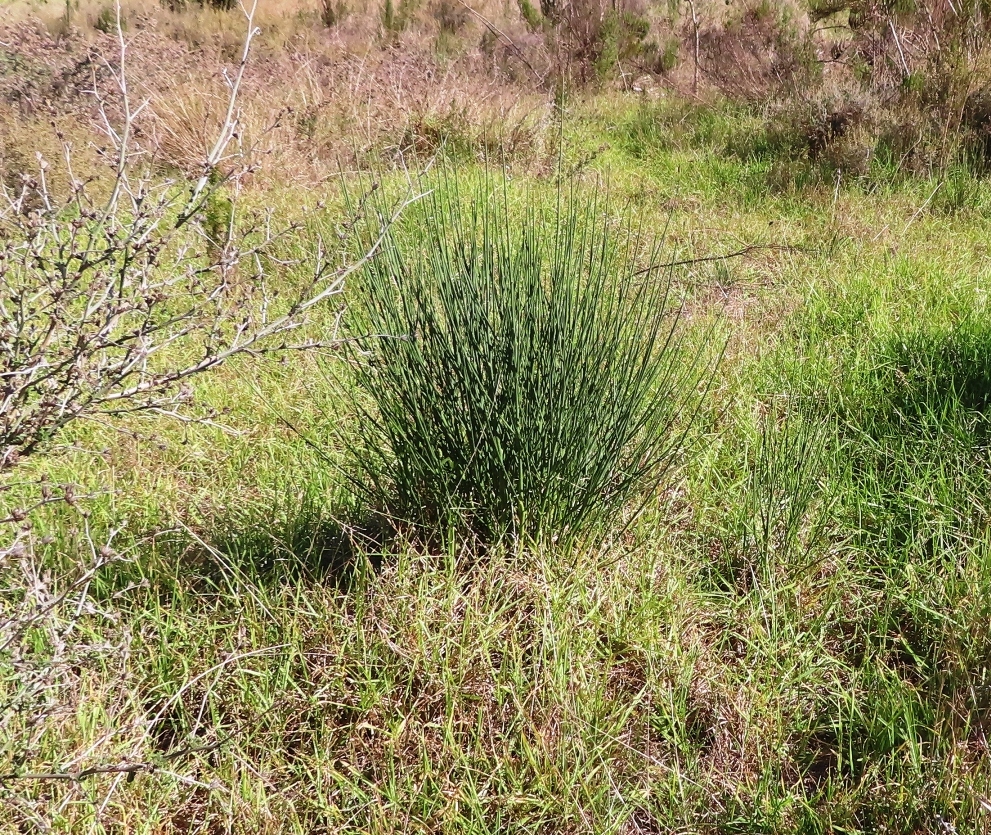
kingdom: Plantae
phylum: Tracheophyta
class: Magnoliopsida
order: Fabales
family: Fabaceae
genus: Spartium
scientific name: Spartium junceum
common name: Spanish broom
